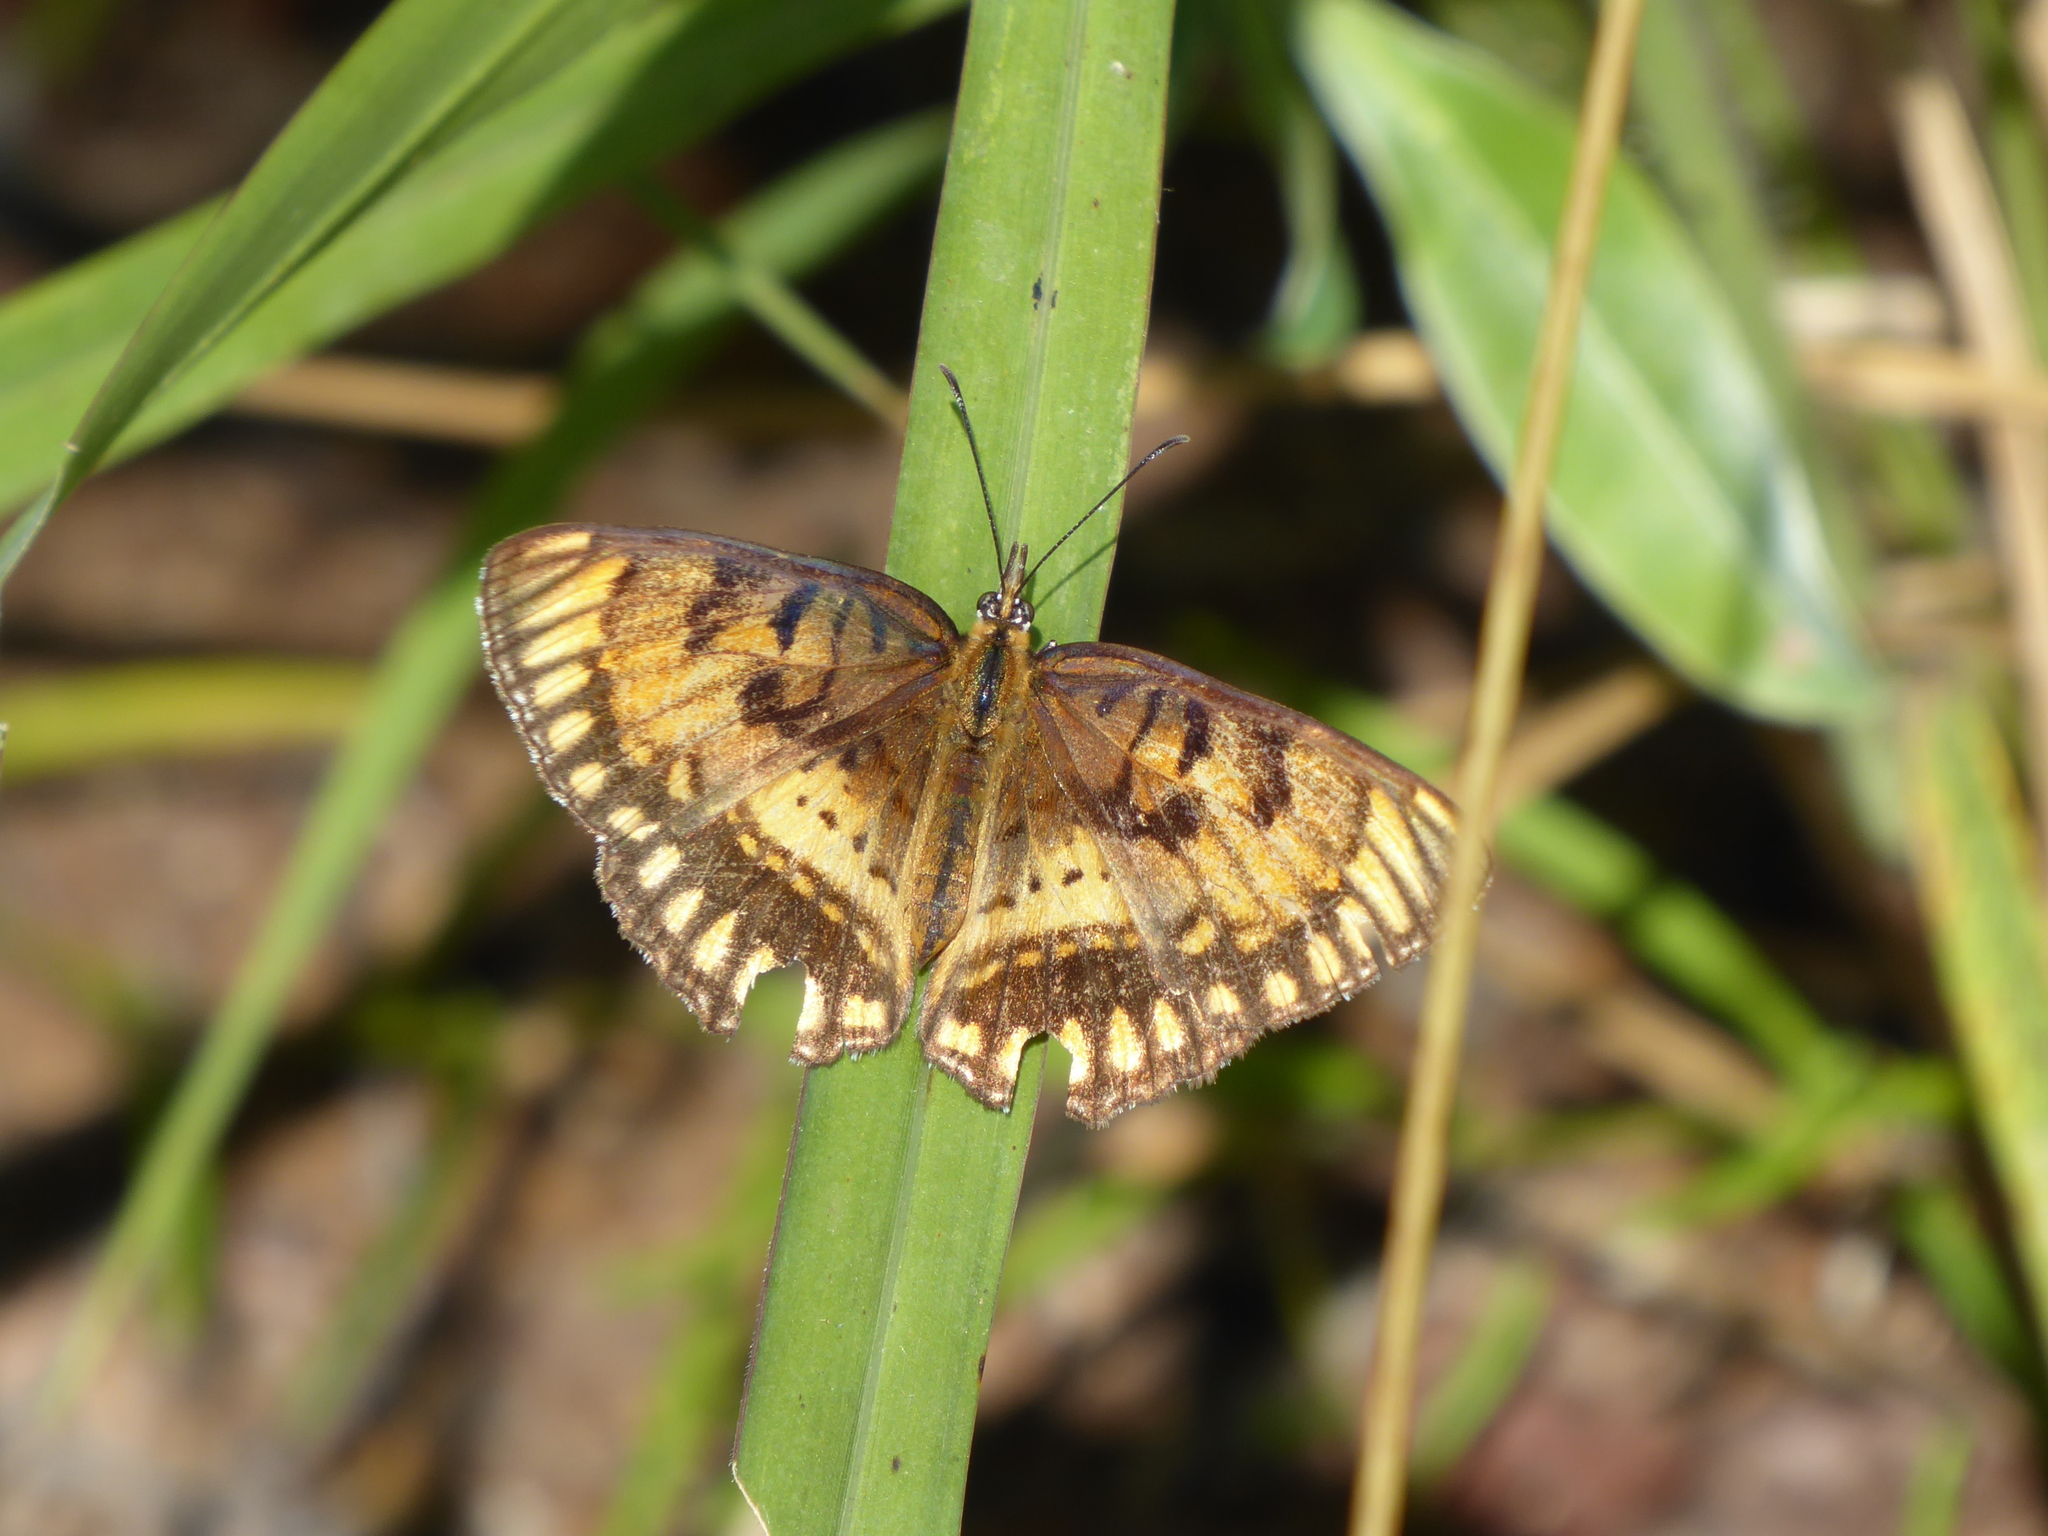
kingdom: Animalia
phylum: Arthropoda
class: Insecta
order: Lepidoptera
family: Nymphalidae
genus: Byblia
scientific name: Byblia ilithyia
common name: Spotted joker
